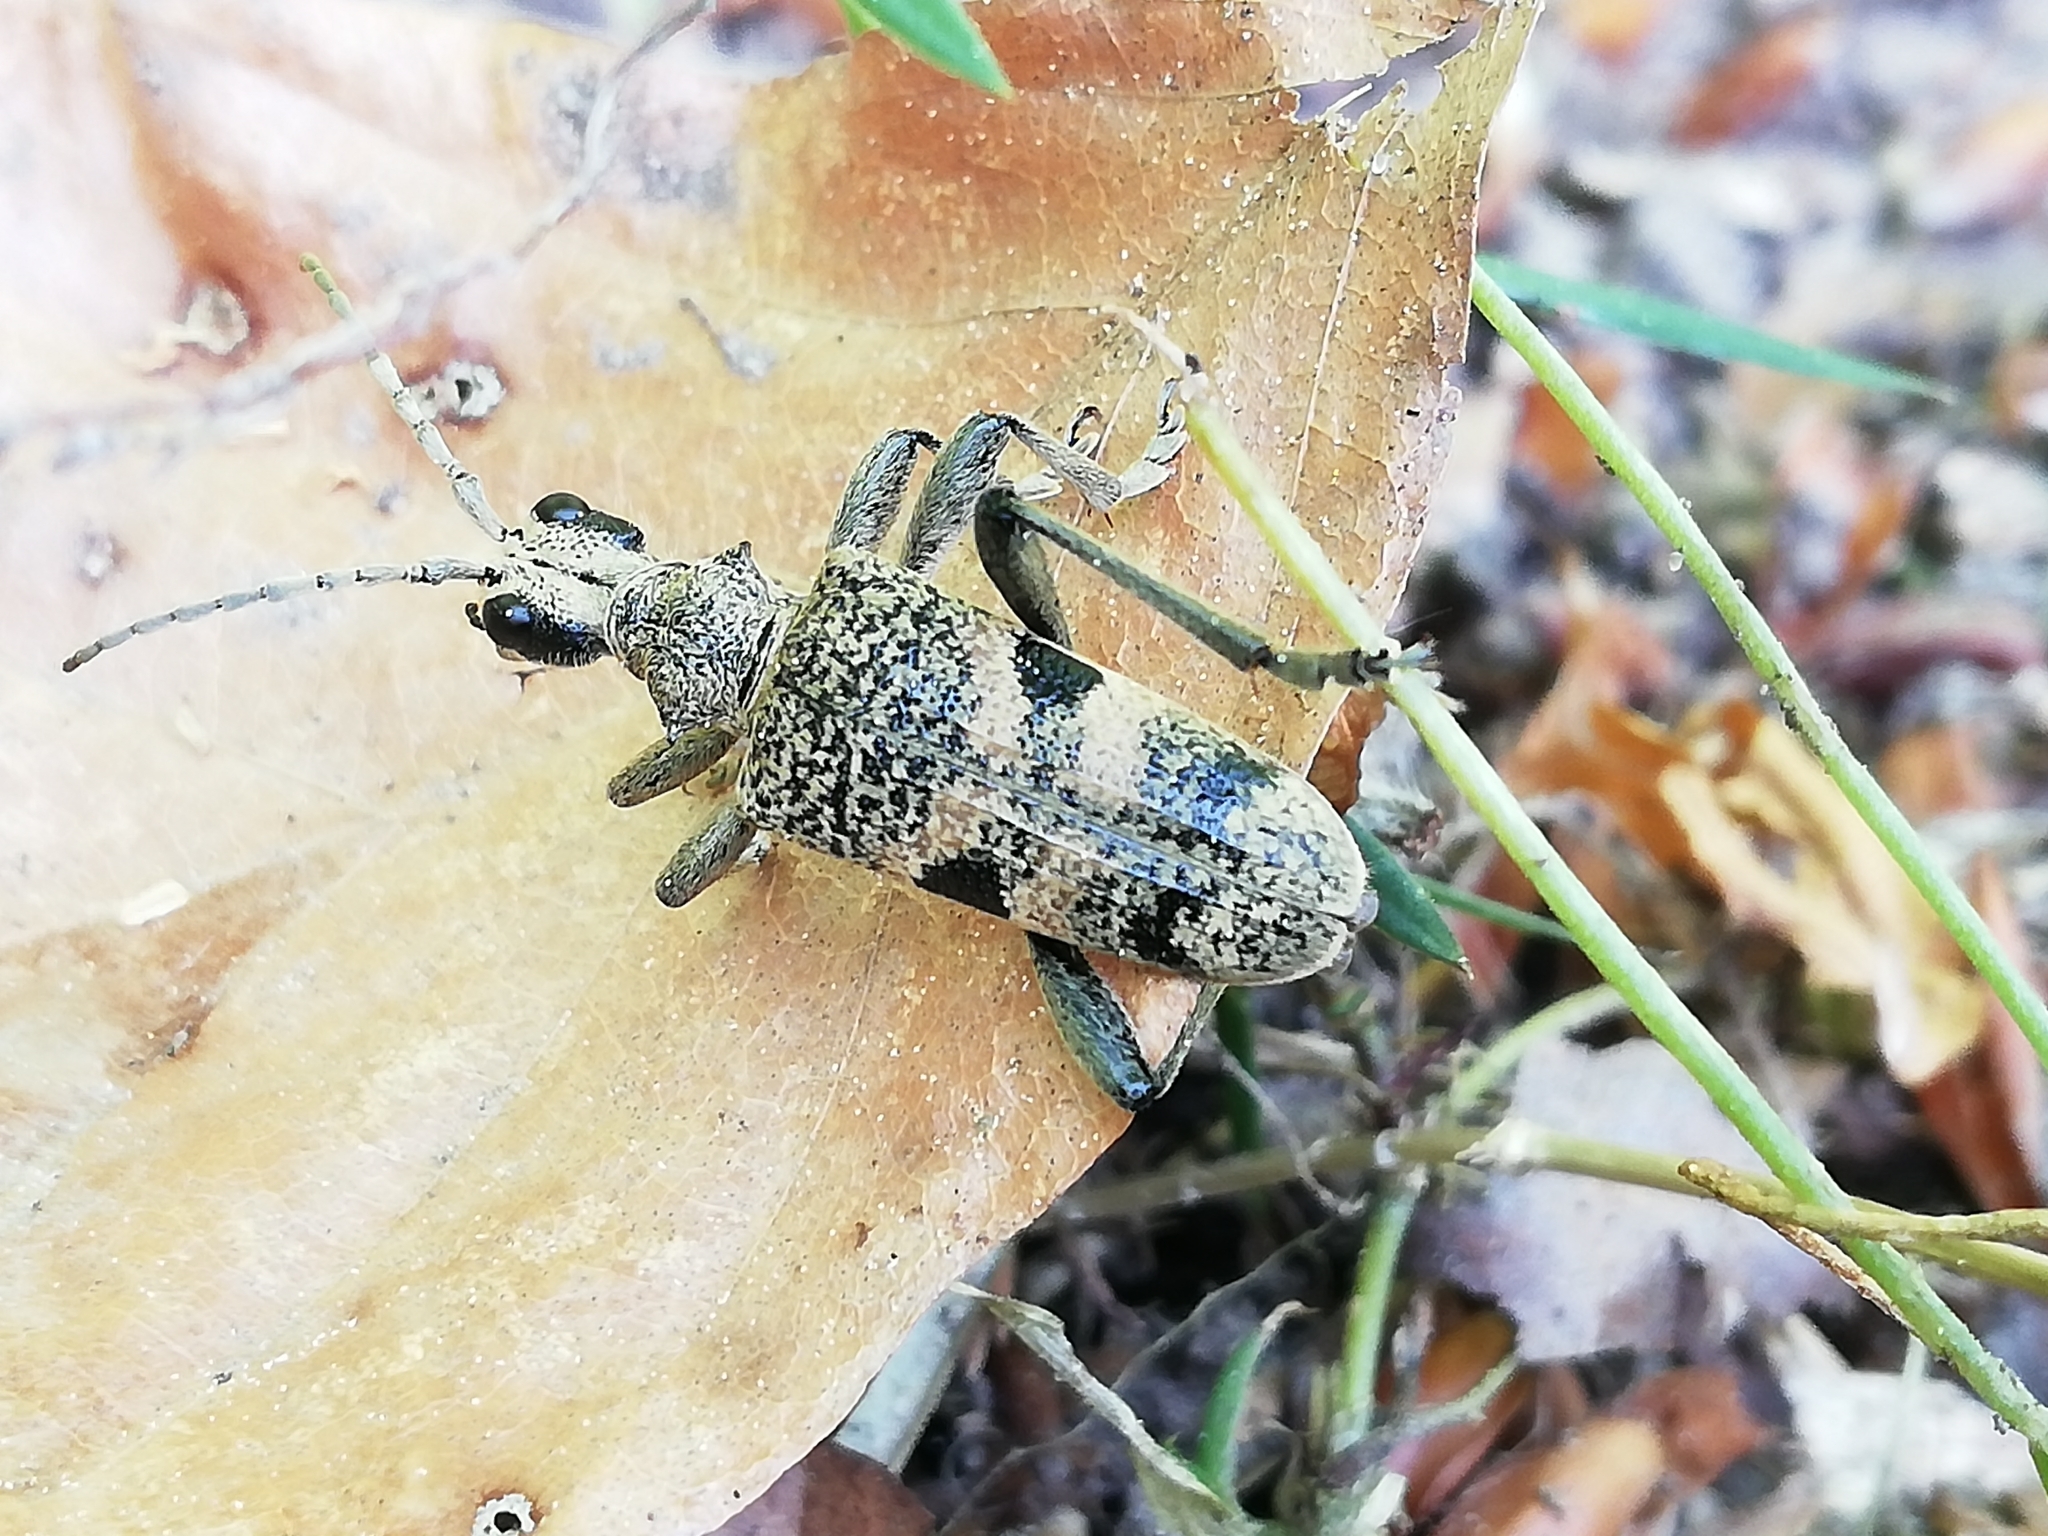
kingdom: Animalia
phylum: Arthropoda
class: Insecta
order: Coleoptera
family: Cerambycidae
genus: Rhagium
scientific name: Rhagium mordax
